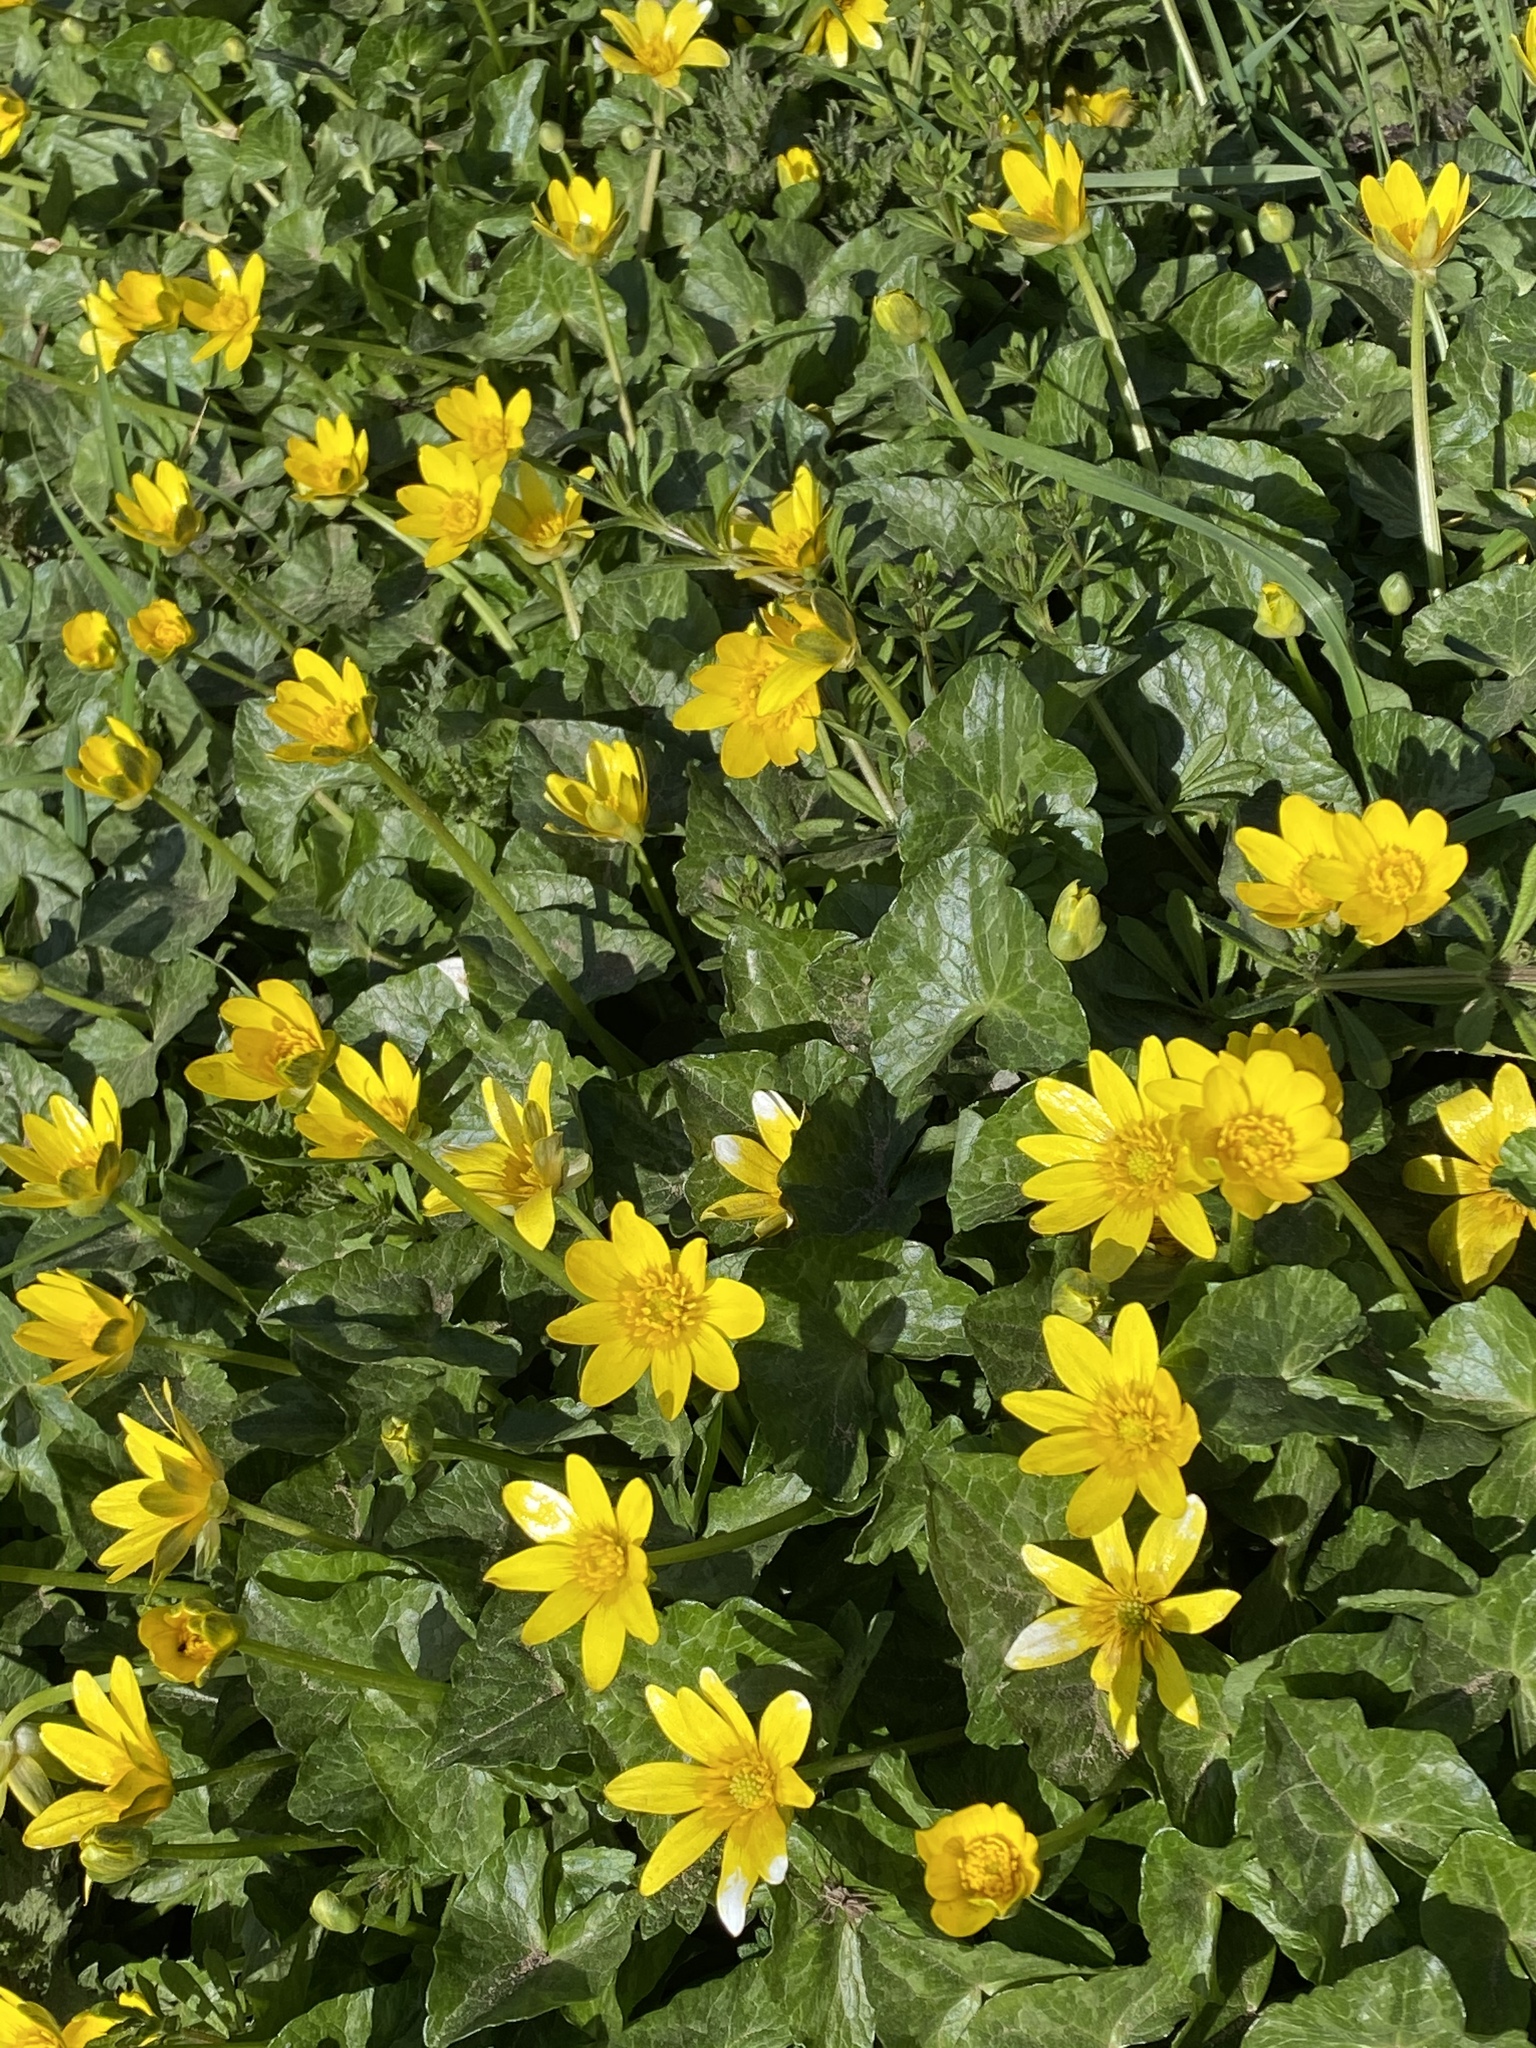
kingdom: Plantae
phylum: Tracheophyta
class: Magnoliopsida
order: Ranunculales
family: Ranunculaceae
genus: Ficaria
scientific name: Ficaria verna
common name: Lesser celandine
